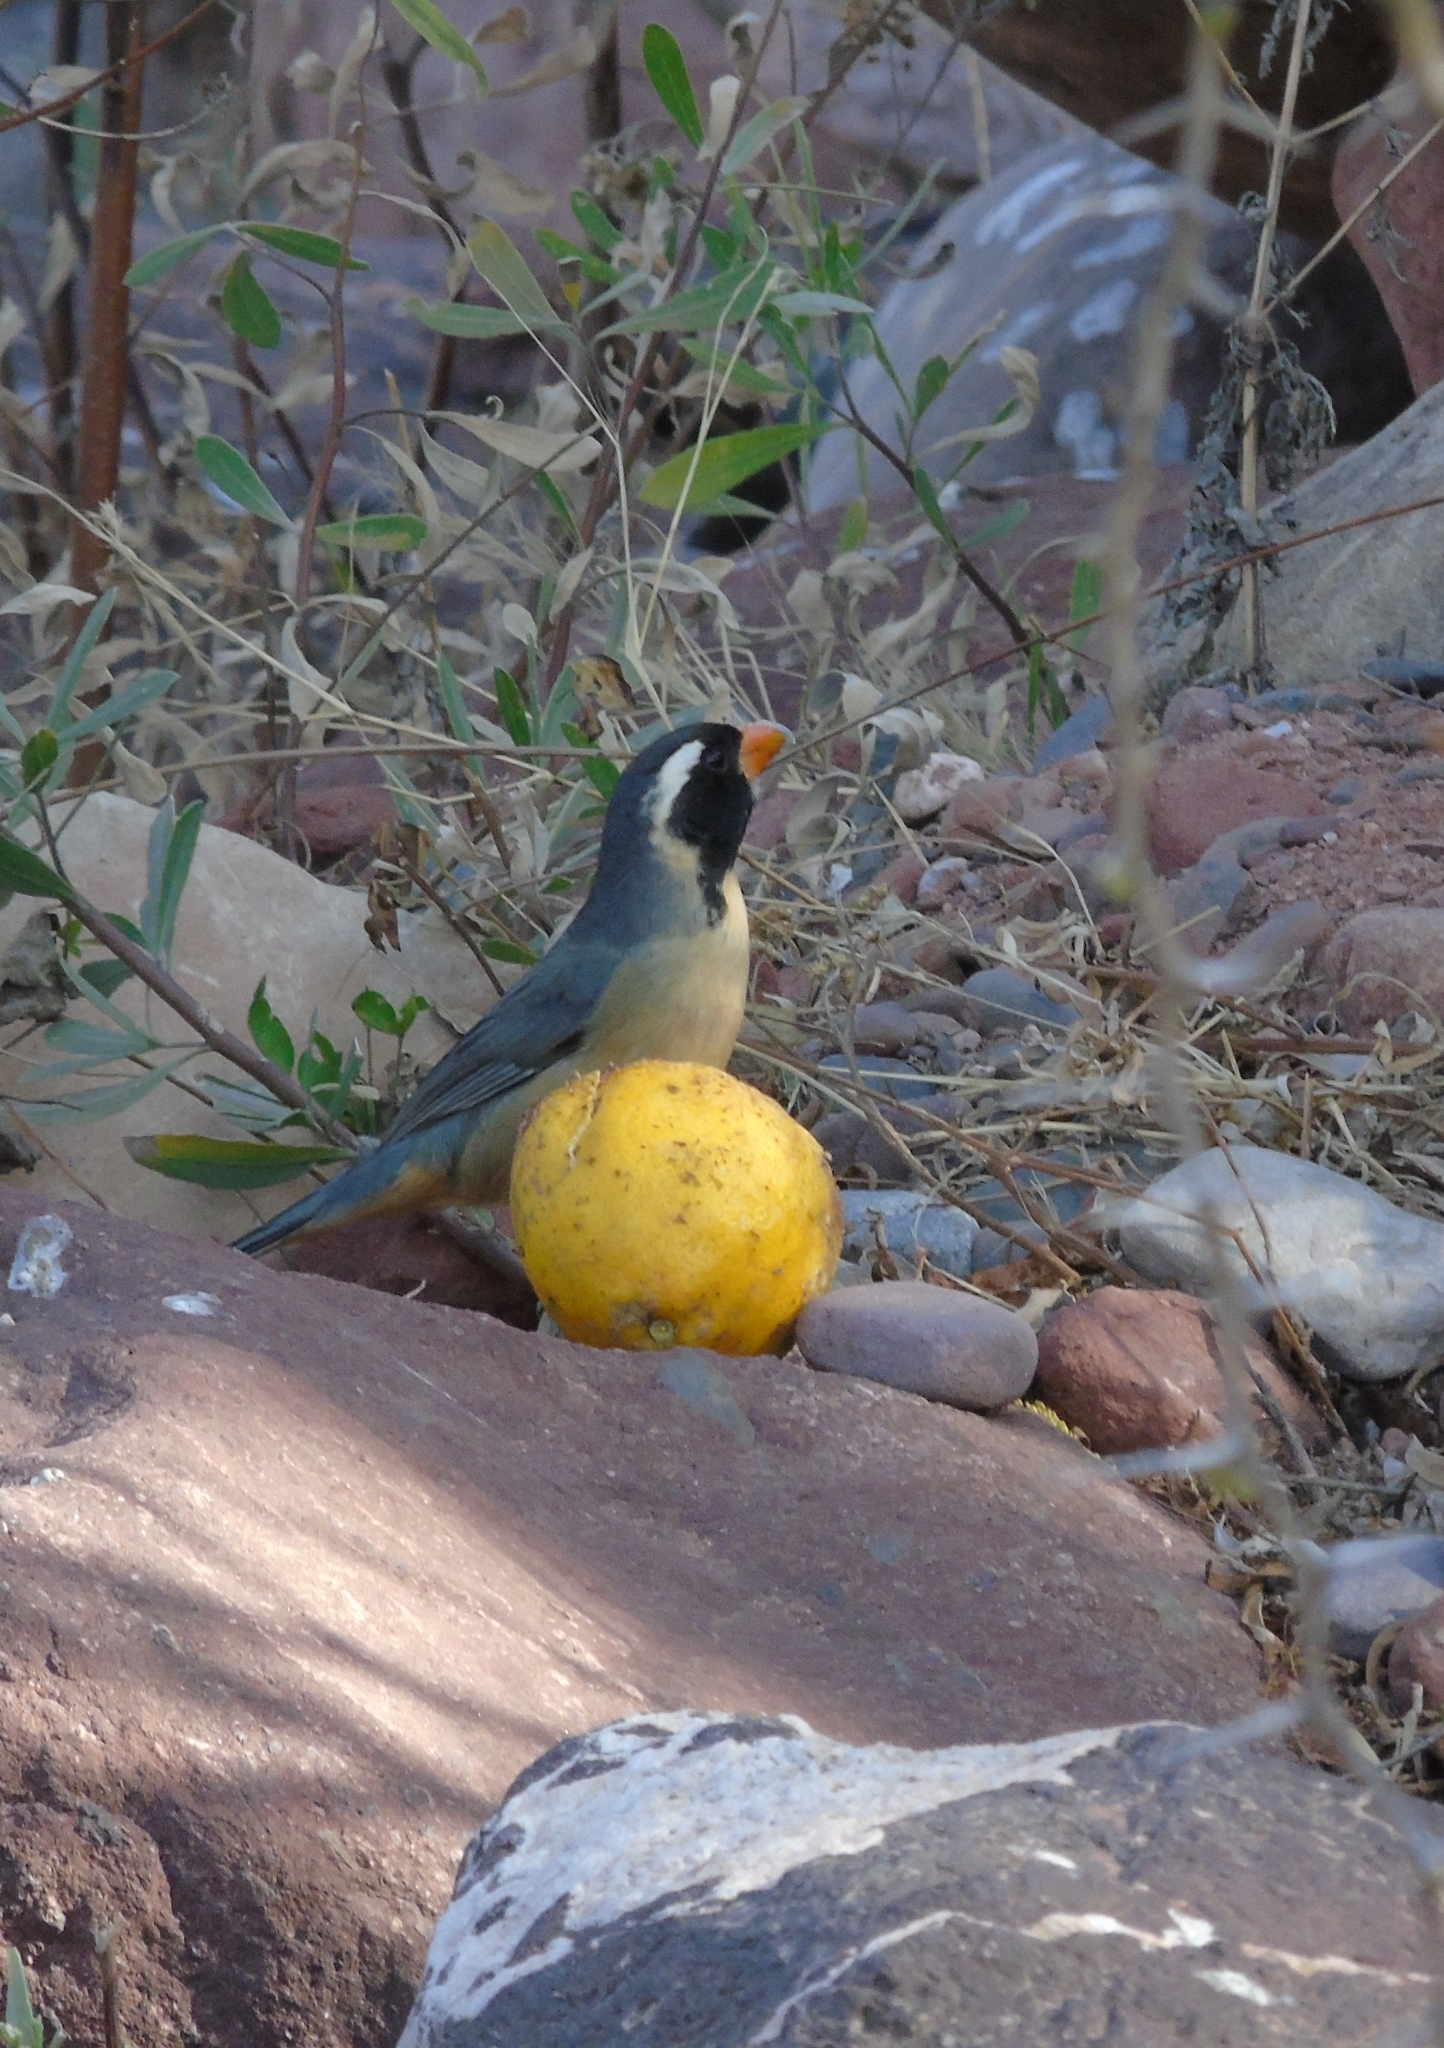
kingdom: Animalia
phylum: Chordata
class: Aves
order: Passeriformes
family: Thraupidae
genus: Saltator
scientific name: Saltator aurantiirostris
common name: Golden-billed saltator
